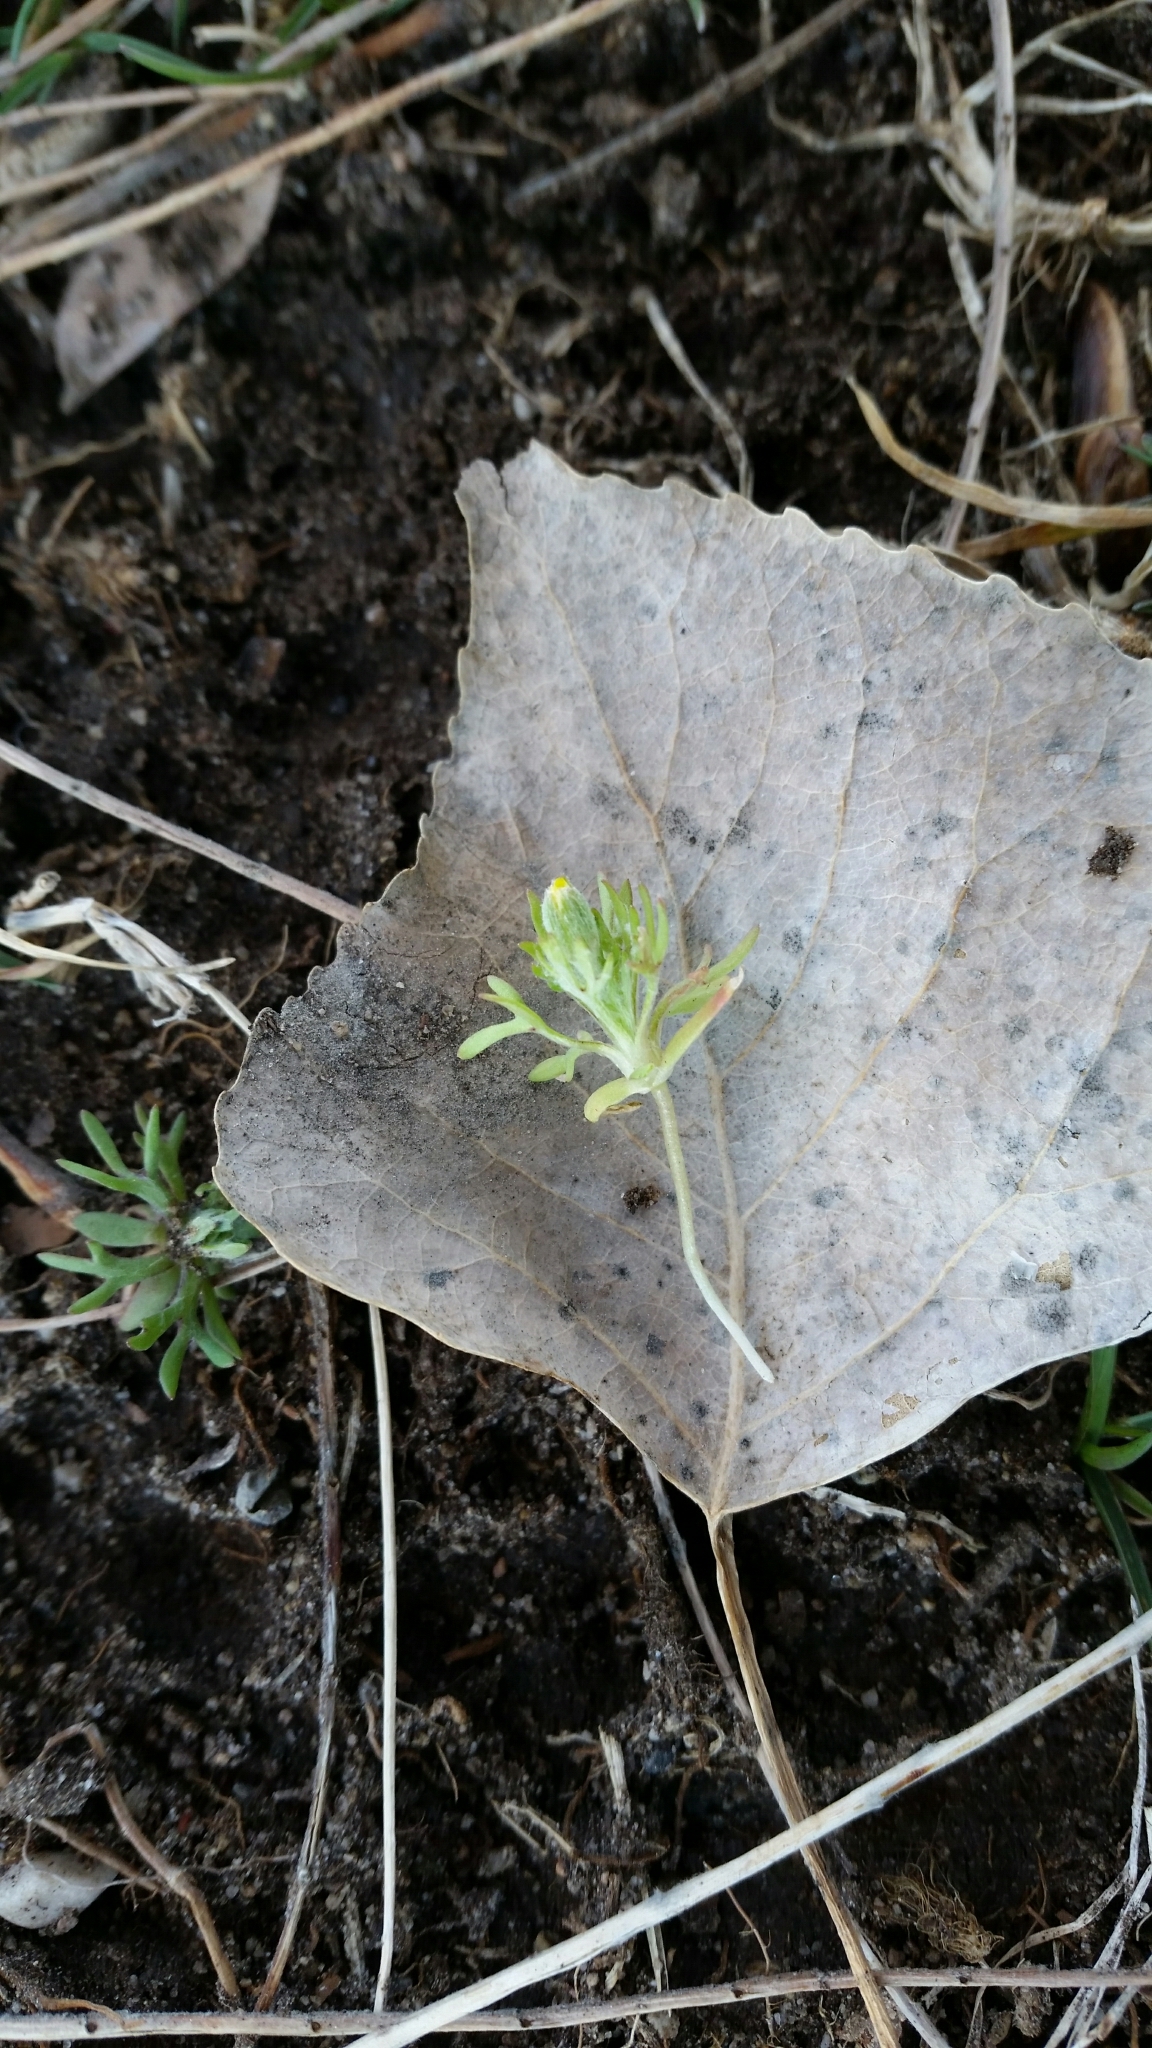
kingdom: Plantae
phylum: Tracheophyta
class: Magnoliopsida
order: Ranunculales
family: Ranunculaceae
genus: Ceratocephala
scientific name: Ceratocephala orthoceras
